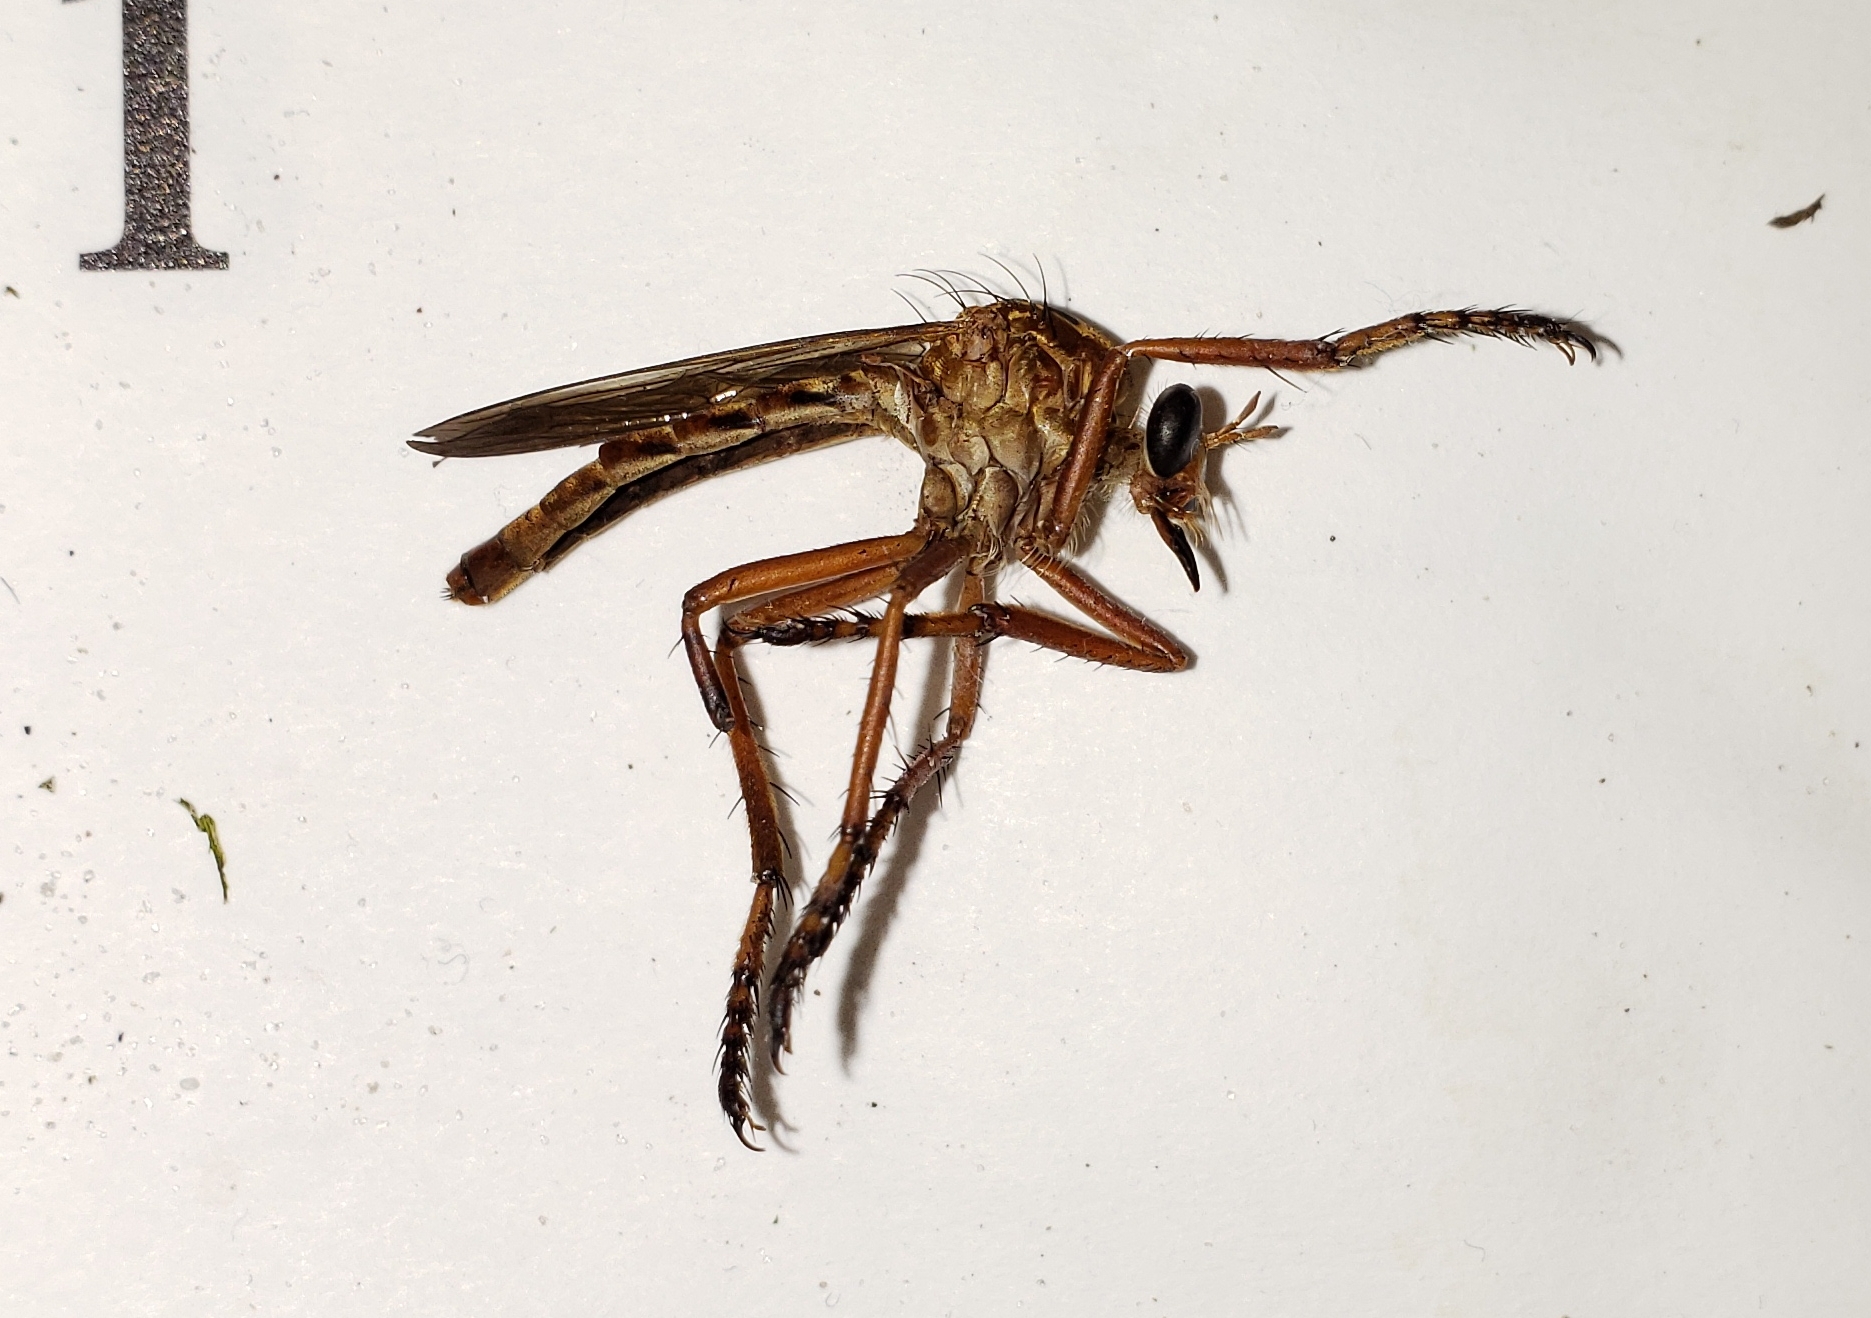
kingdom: Animalia
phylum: Arthropoda
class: Insecta
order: Diptera
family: Asilidae
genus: Diogmites
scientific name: Diogmites esuriens
